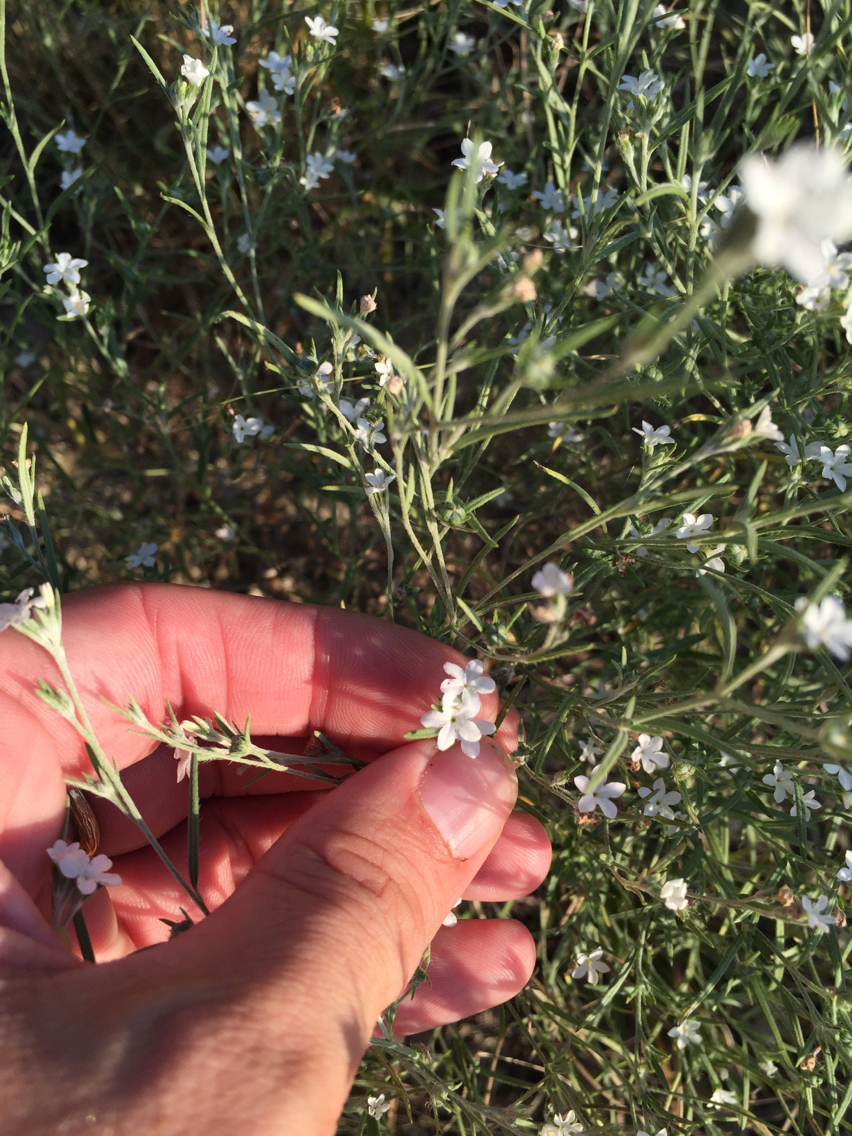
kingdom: Plantae
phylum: Tracheophyta
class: Magnoliopsida
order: Boraginales
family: Heliotropiaceae
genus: Euploca
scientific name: Euploca tenella
